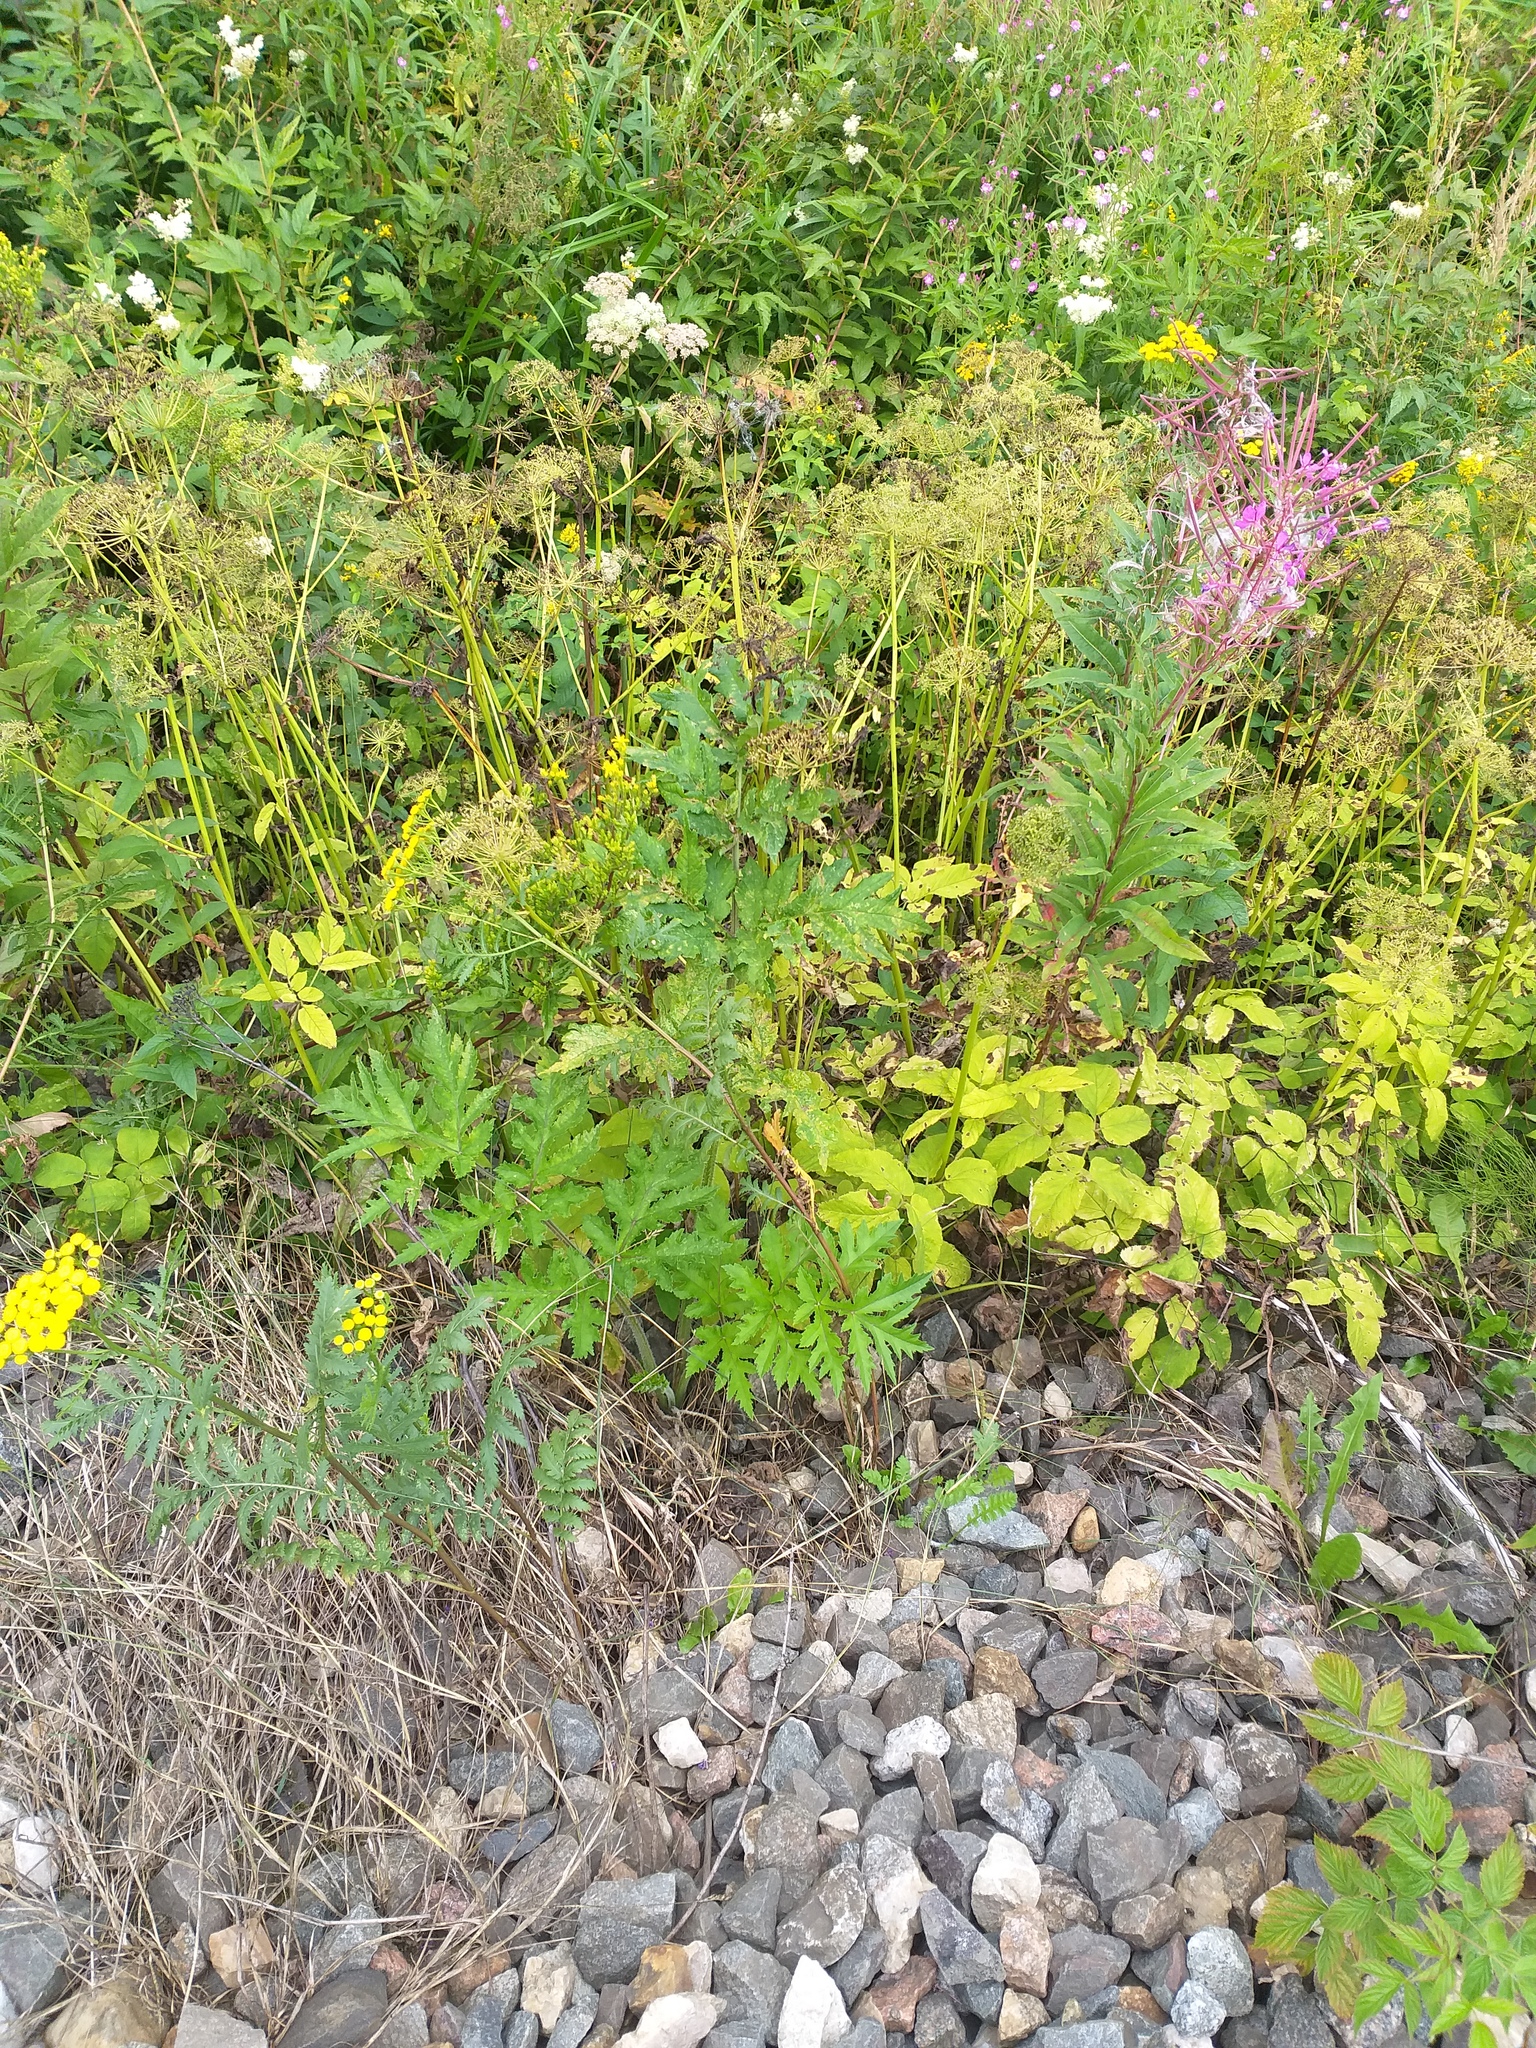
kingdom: Plantae
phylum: Tracheophyta
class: Magnoliopsida
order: Apiales
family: Apiaceae
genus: Heracleum
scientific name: Heracleum sphondylium
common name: Hogweed
